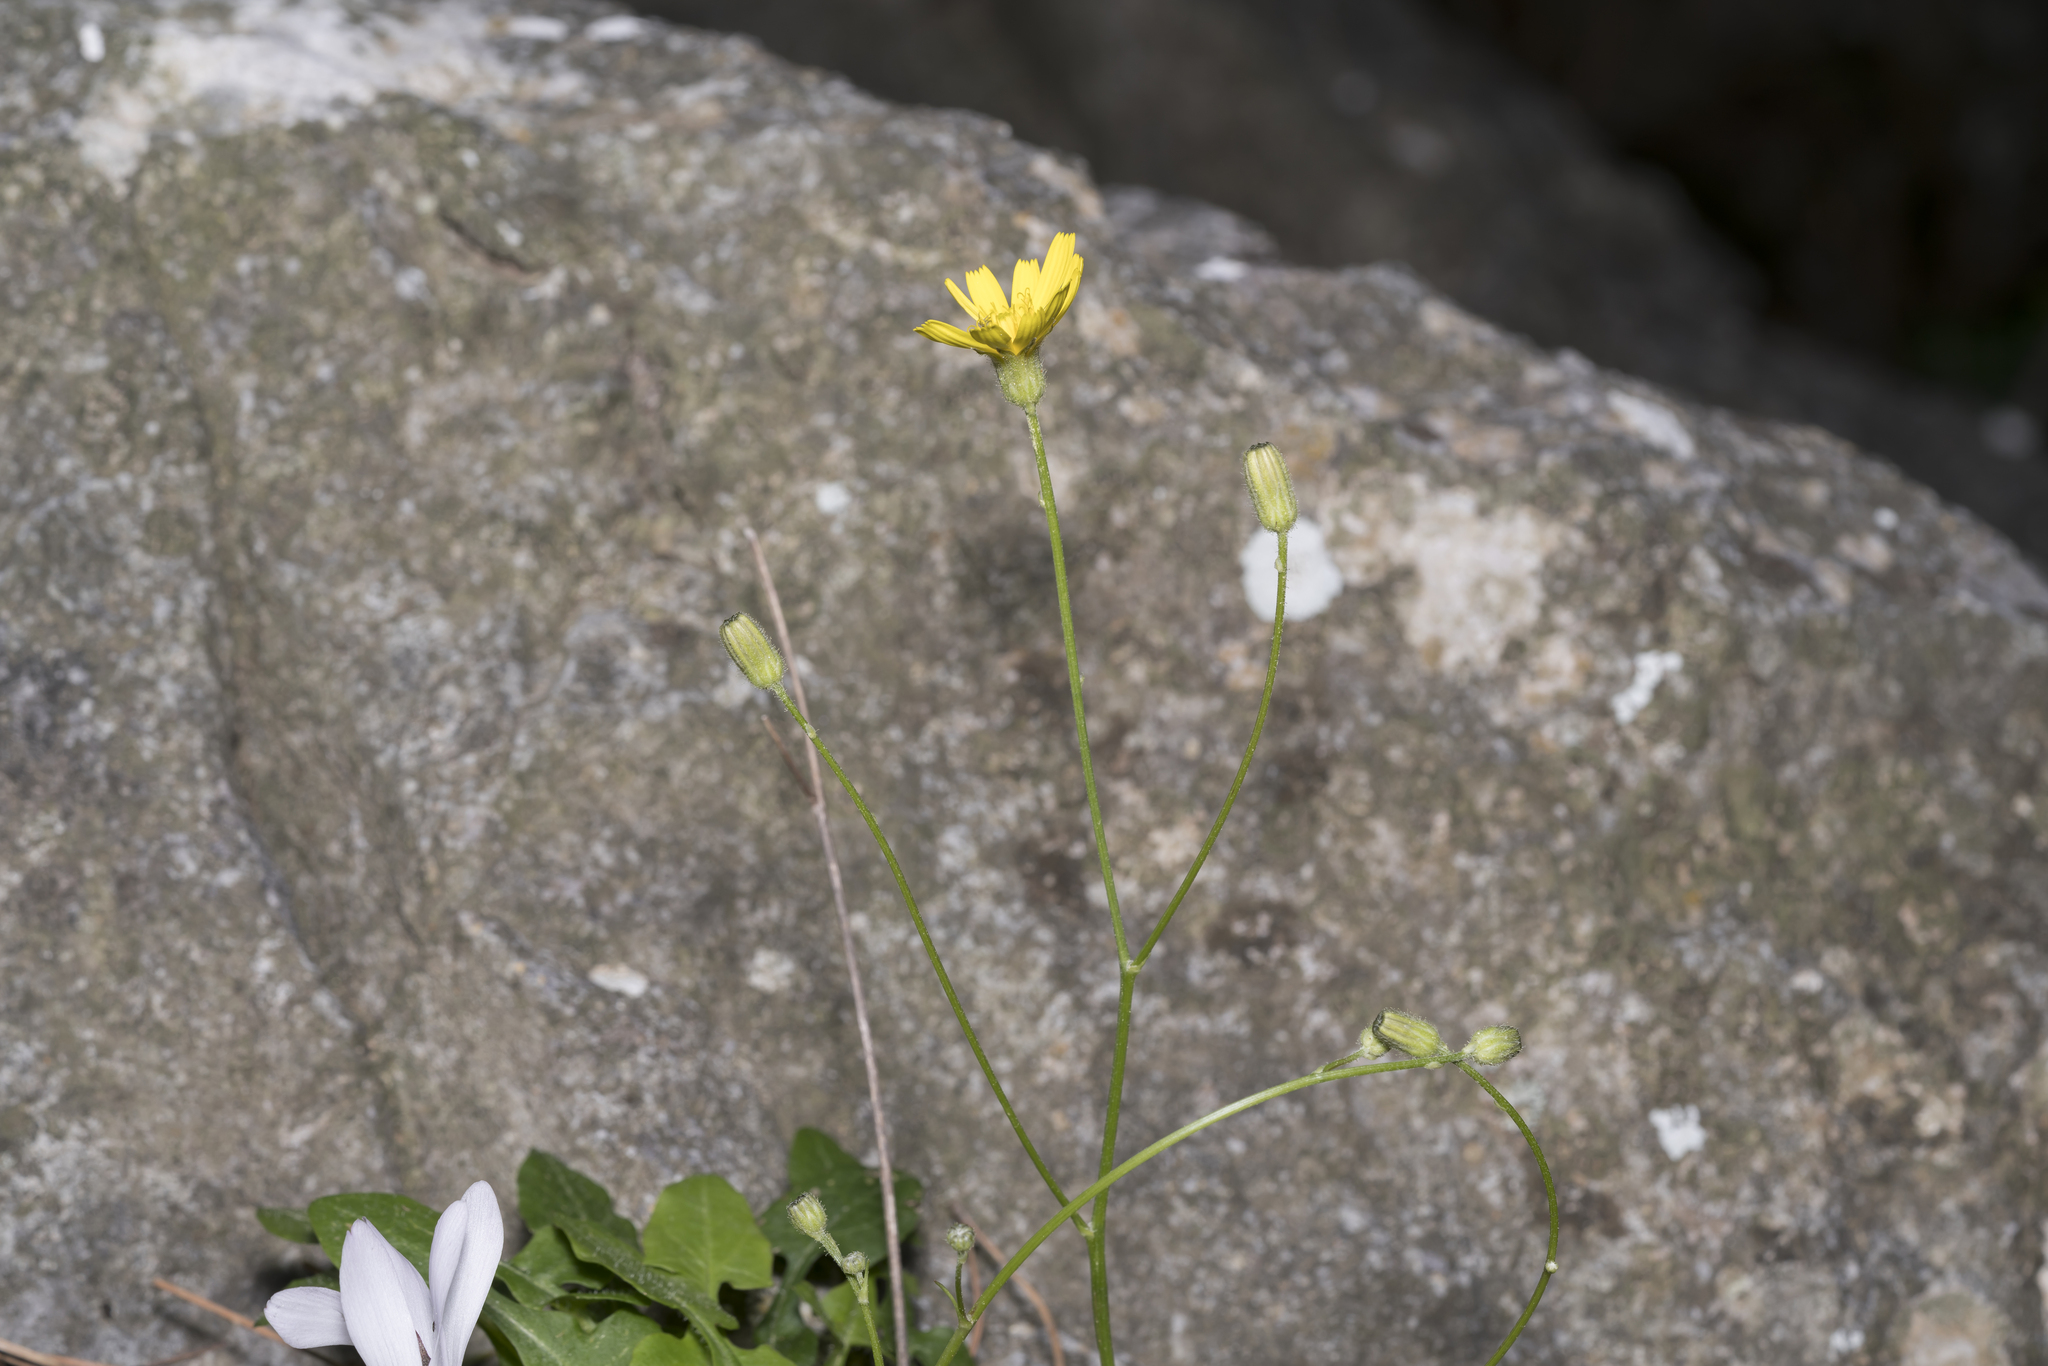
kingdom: Plantae
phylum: Tracheophyta
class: Magnoliopsida
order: Asterales
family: Asteraceae
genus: Crepis
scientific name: Crepis fraasii
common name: Hawk's-beard
